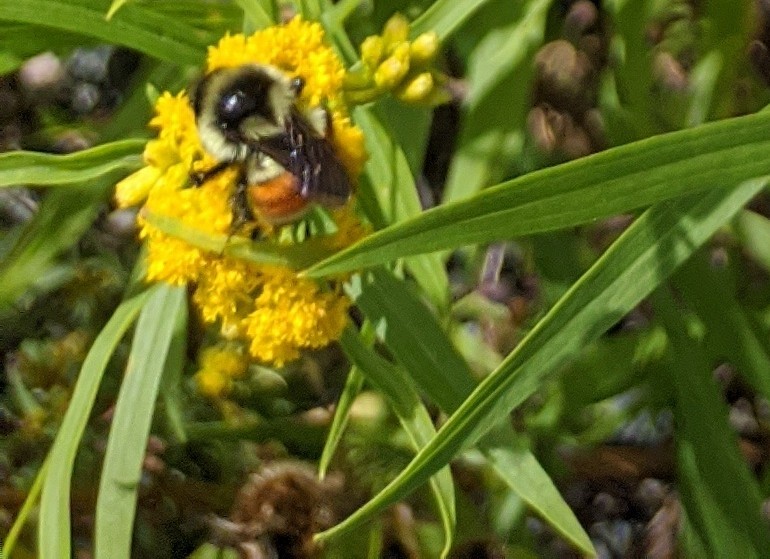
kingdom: Animalia
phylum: Arthropoda
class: Insecta
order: Hymenoptera
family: Apidae
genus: Bombus
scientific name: Bombus ternarius
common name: Tri-colored bumble bee
